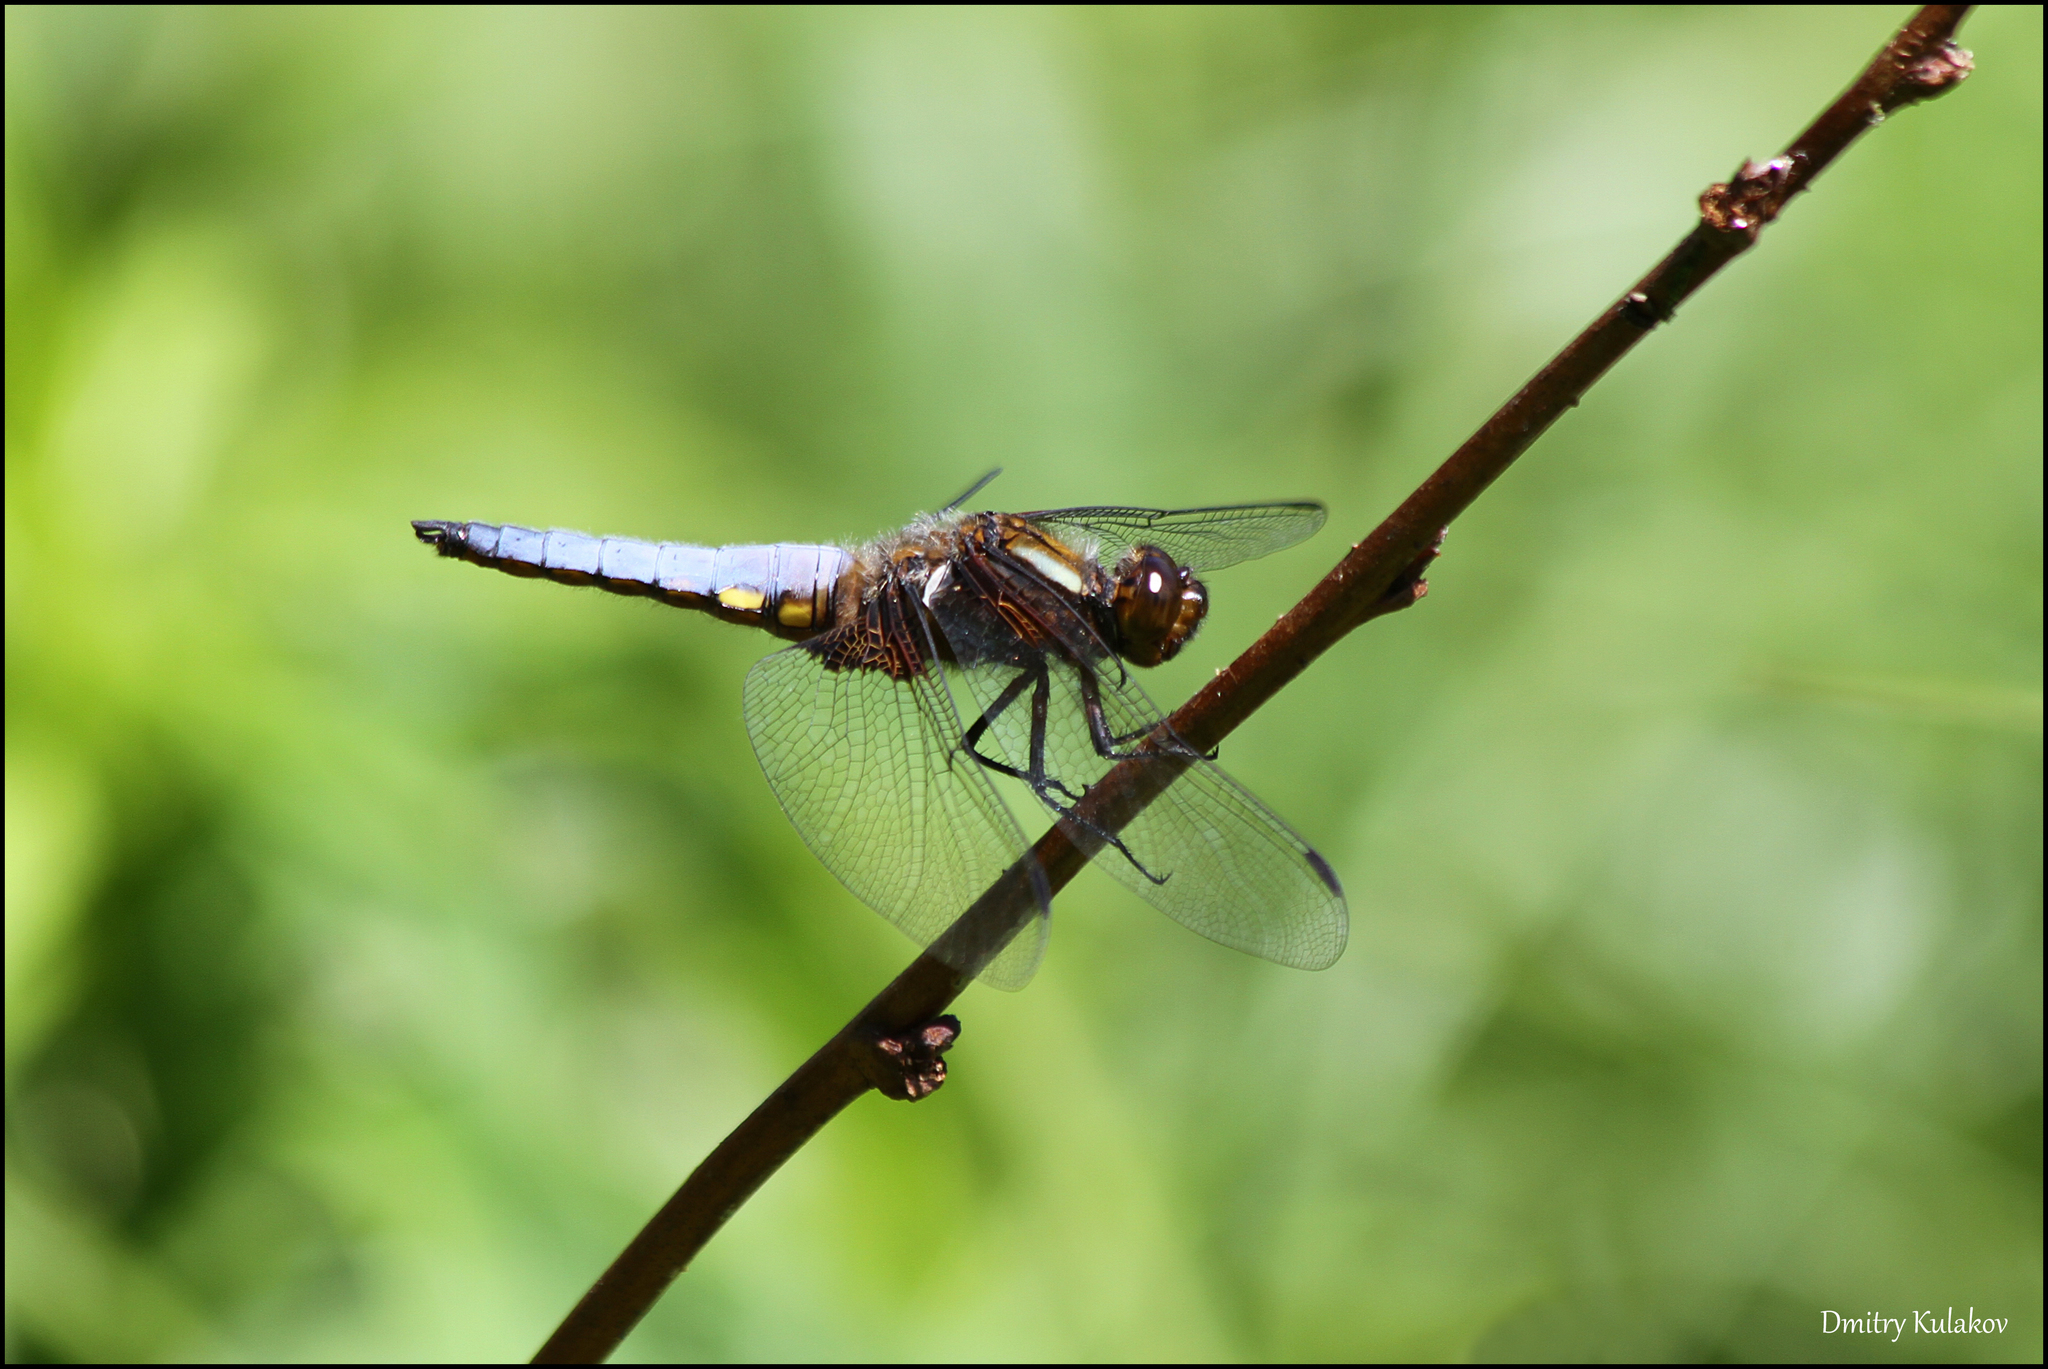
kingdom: Animalia
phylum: Arthropoda
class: Insecta
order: Odonata
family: Libellulidae
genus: Libellula
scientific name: Libellula depressa
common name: Broad-bodied chaser
